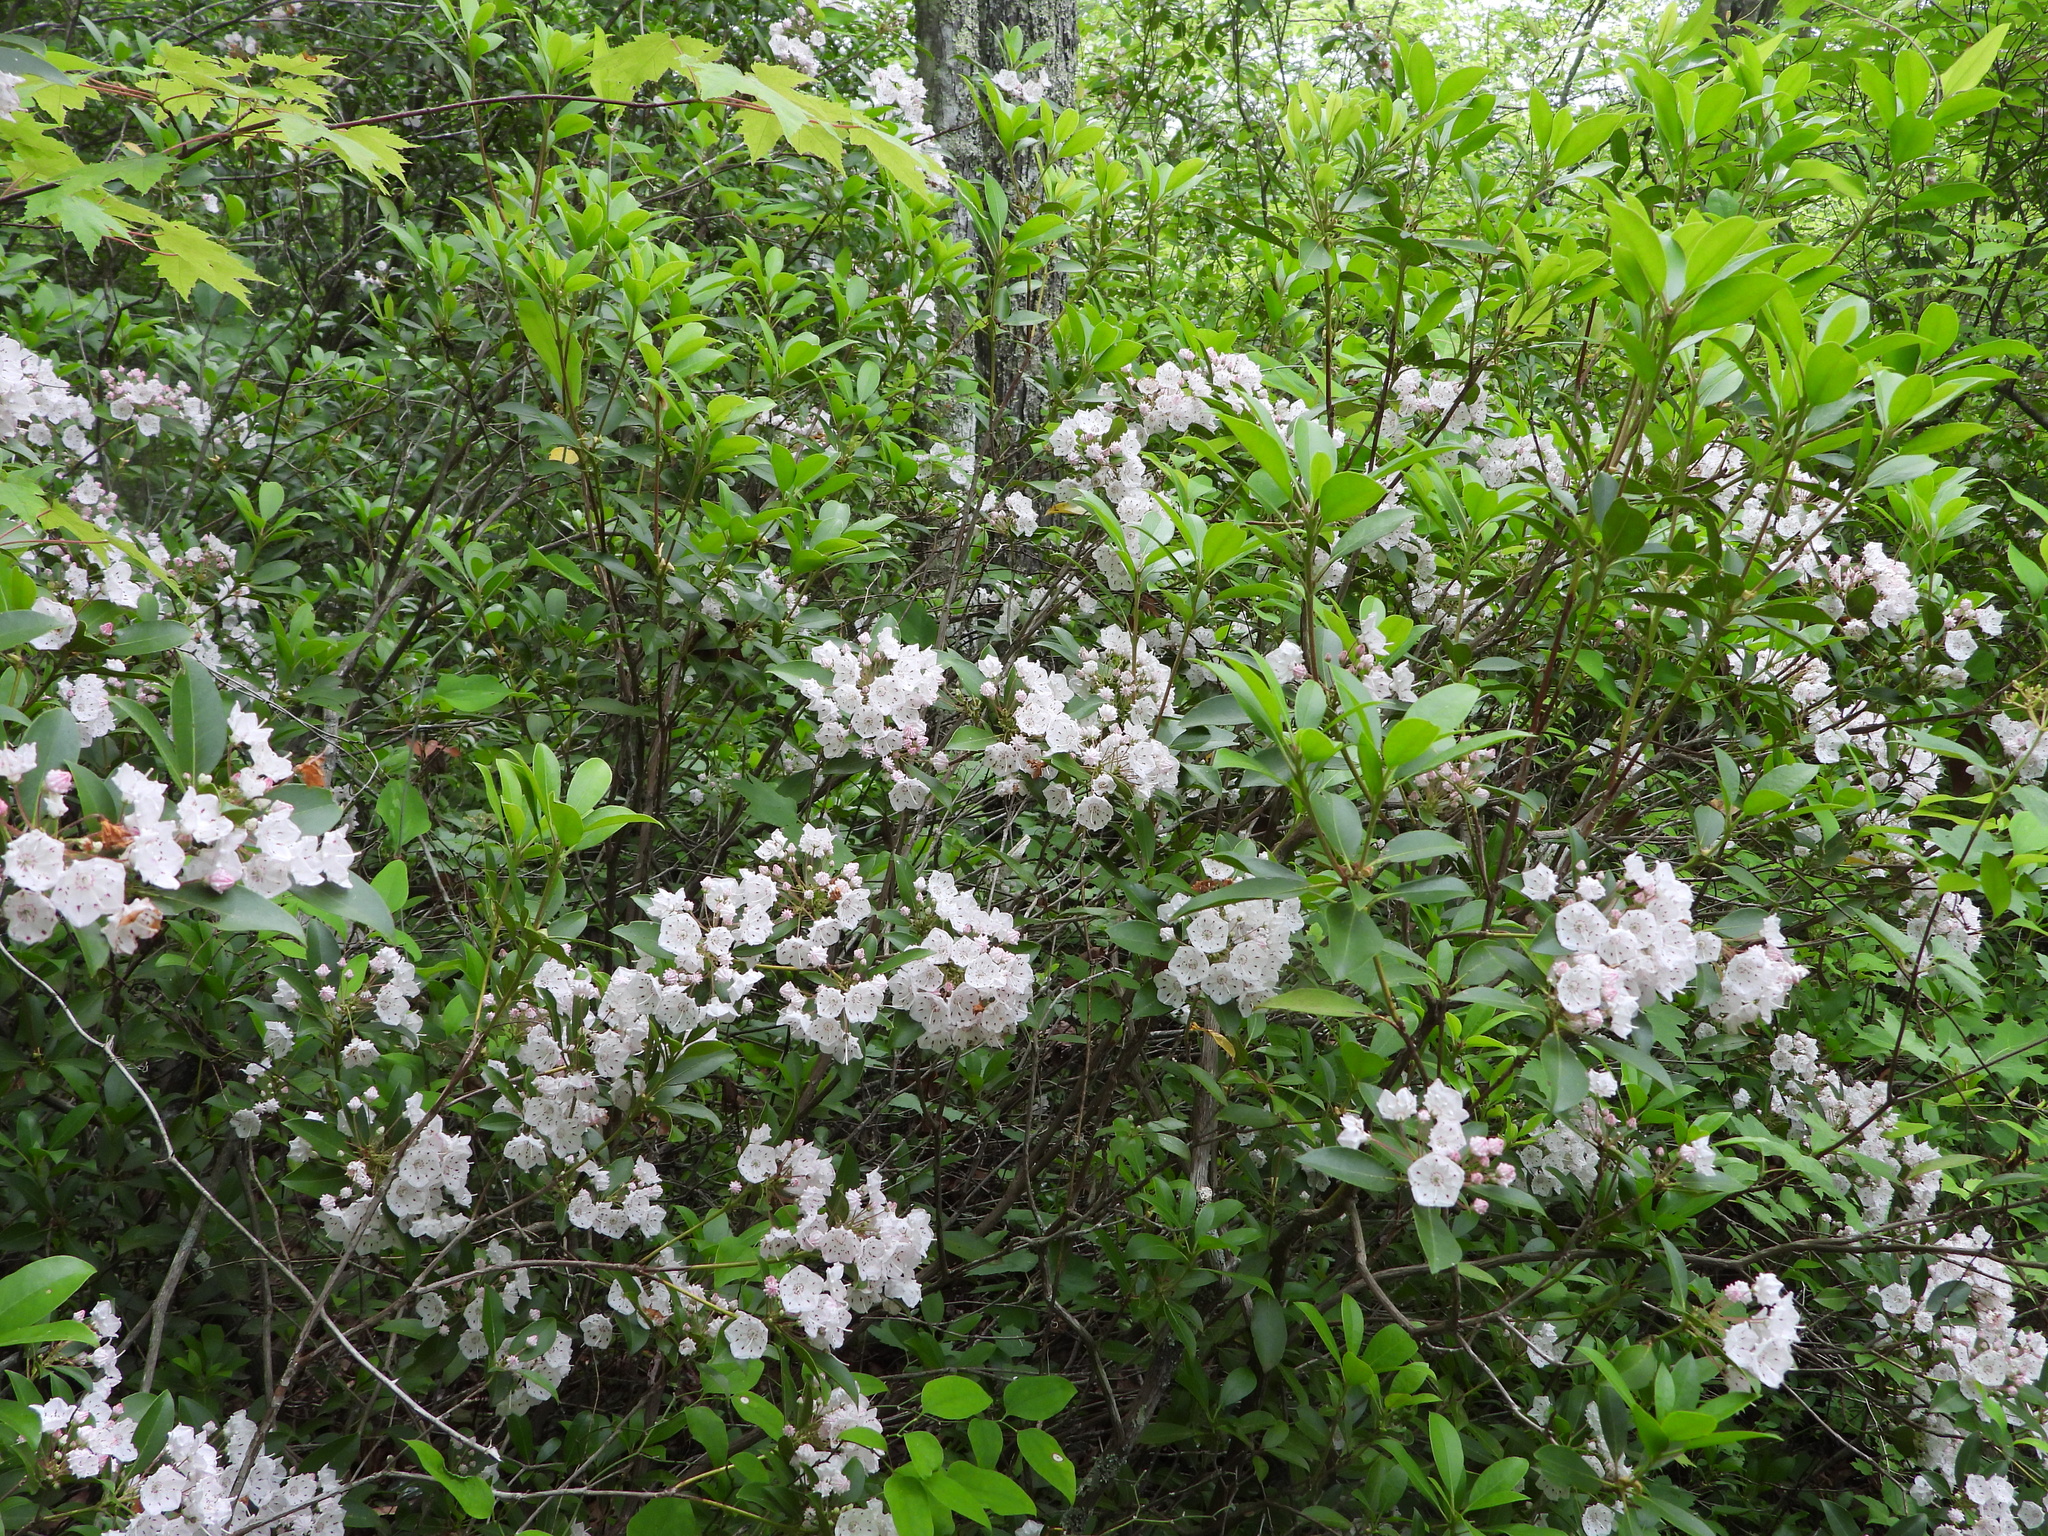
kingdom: Plantae
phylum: Tracheophyta
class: Magnoliopsida
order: Ericales
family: Ericaceae
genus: Kalmia
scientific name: Kalmia latifolia
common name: Mountain-laurel
